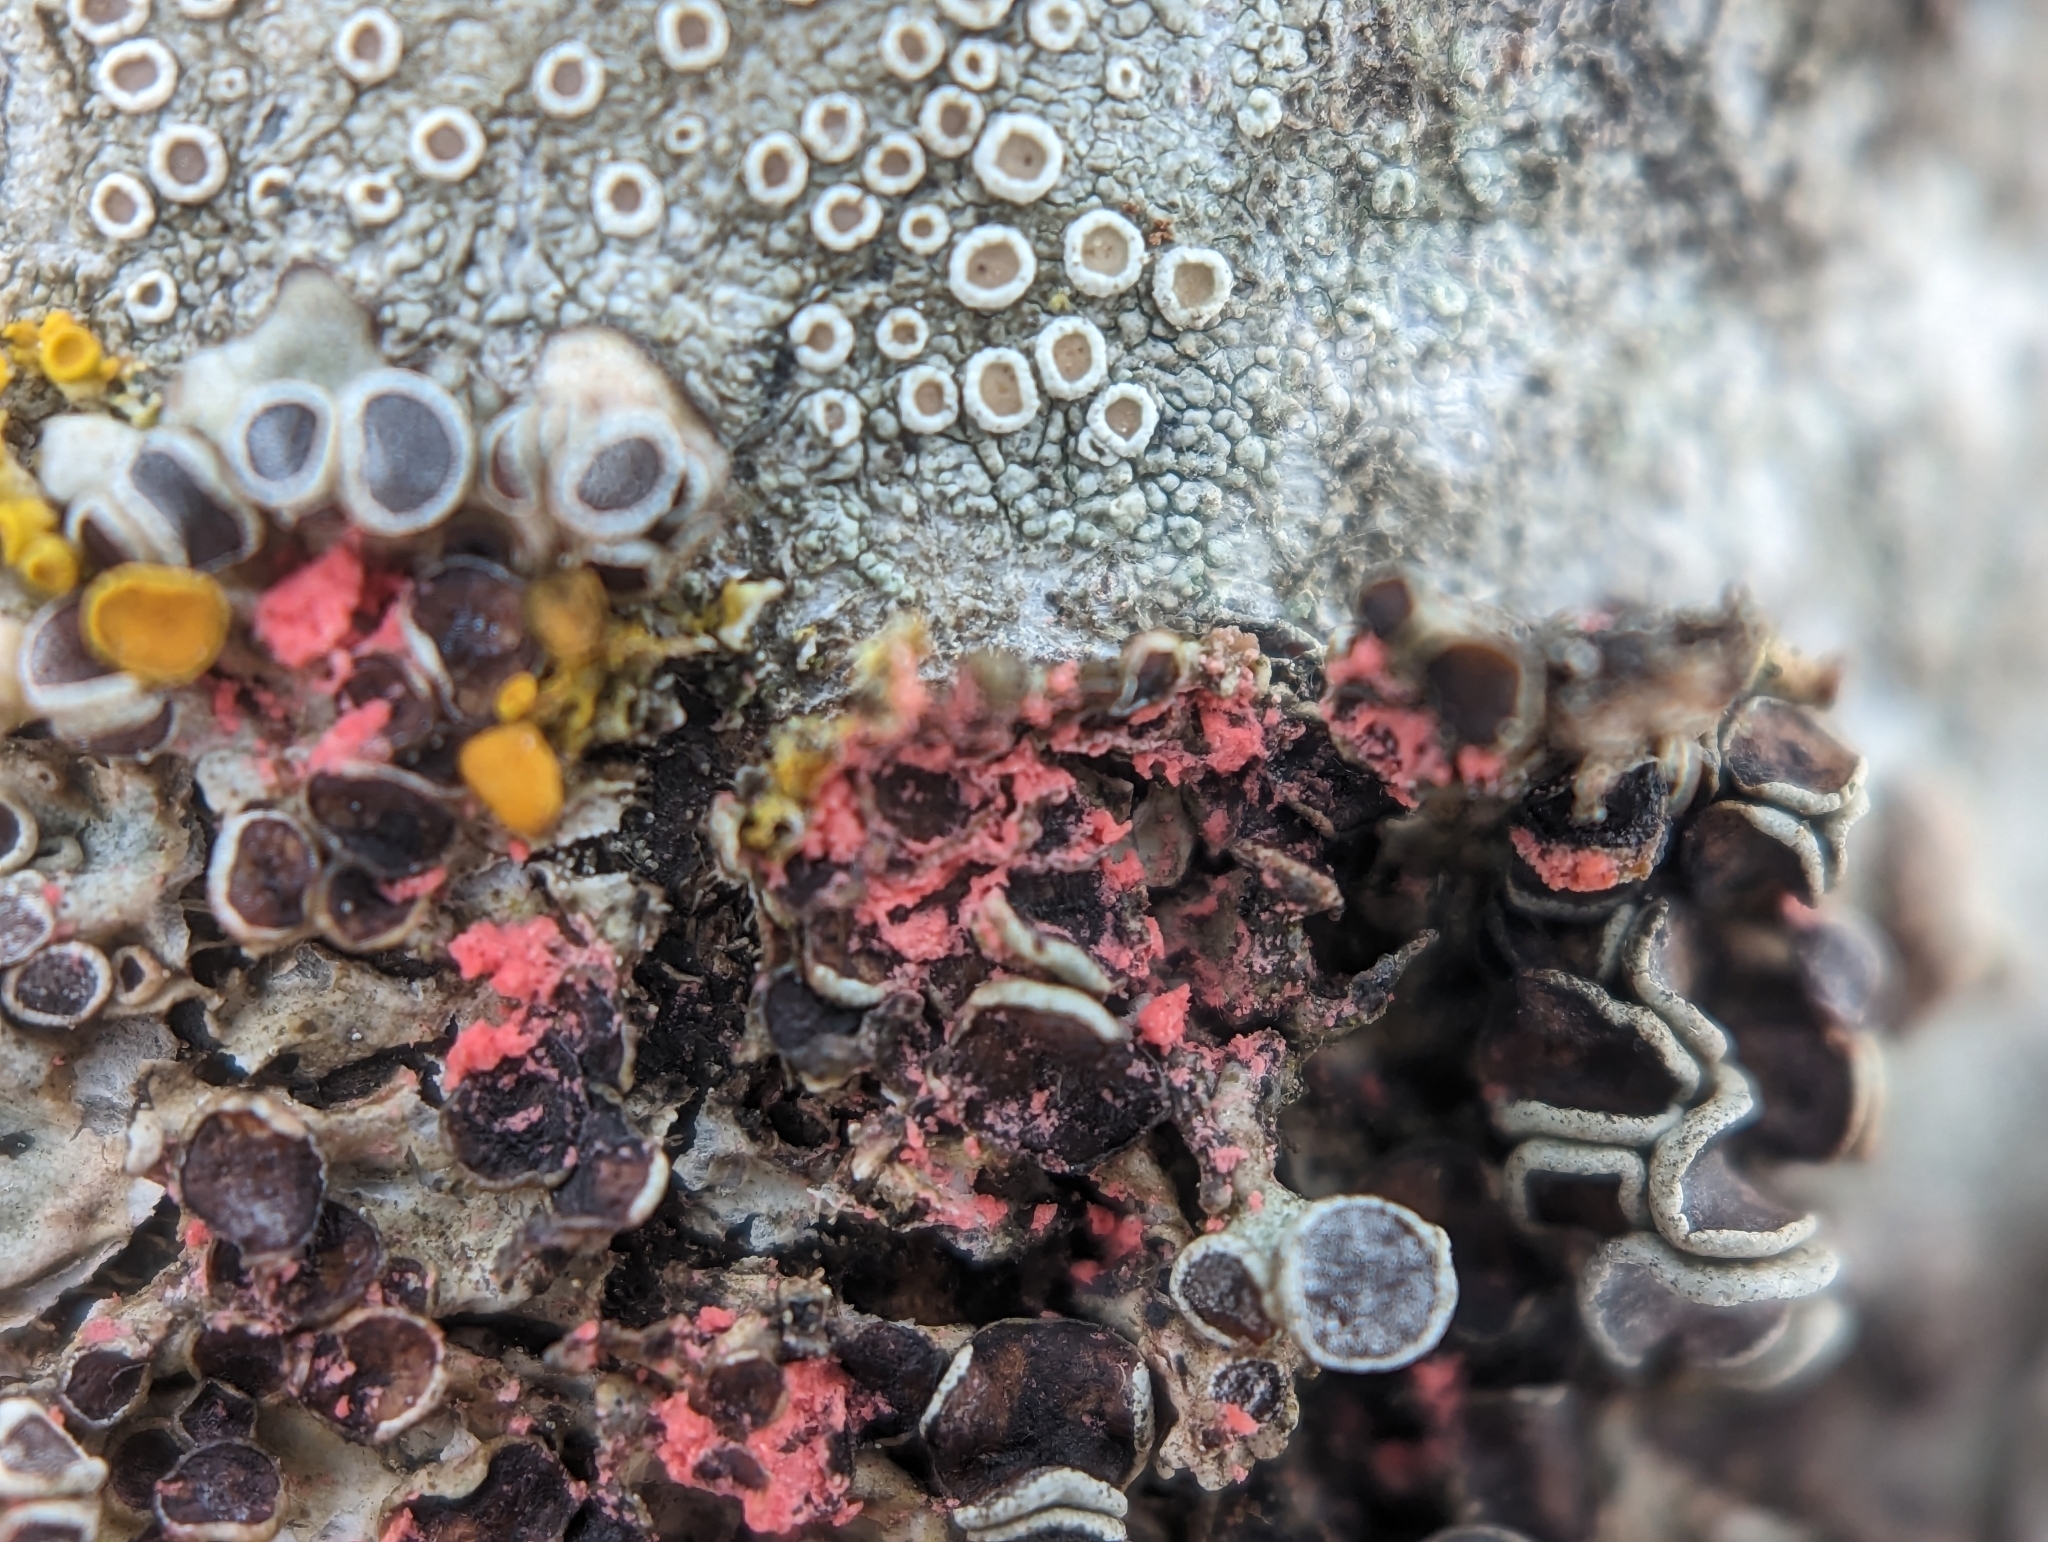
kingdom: Fungi
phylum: Ascomycota
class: Sordariomycetes
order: Hypocreales
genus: Illosporiopsis
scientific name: Illosporiopsis christiansenii
